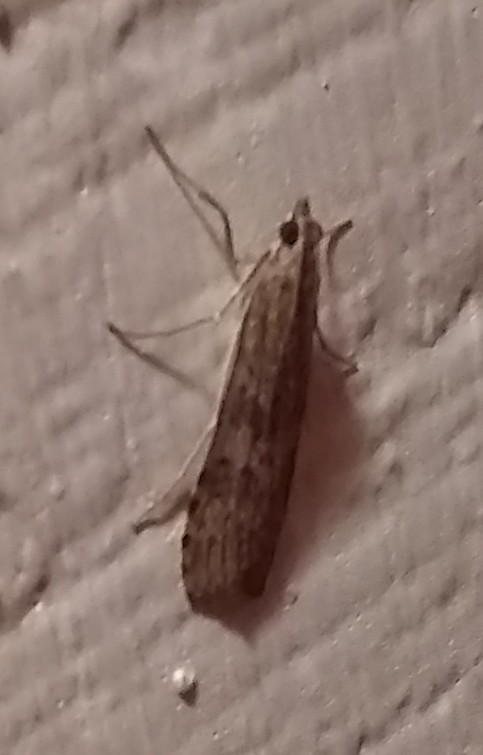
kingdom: Animalia
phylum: Arthropoda
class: Insecta
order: Lepidoptera
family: Crambidae
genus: Nomophila
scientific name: Nomophila nearctica
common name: American rush veneer
